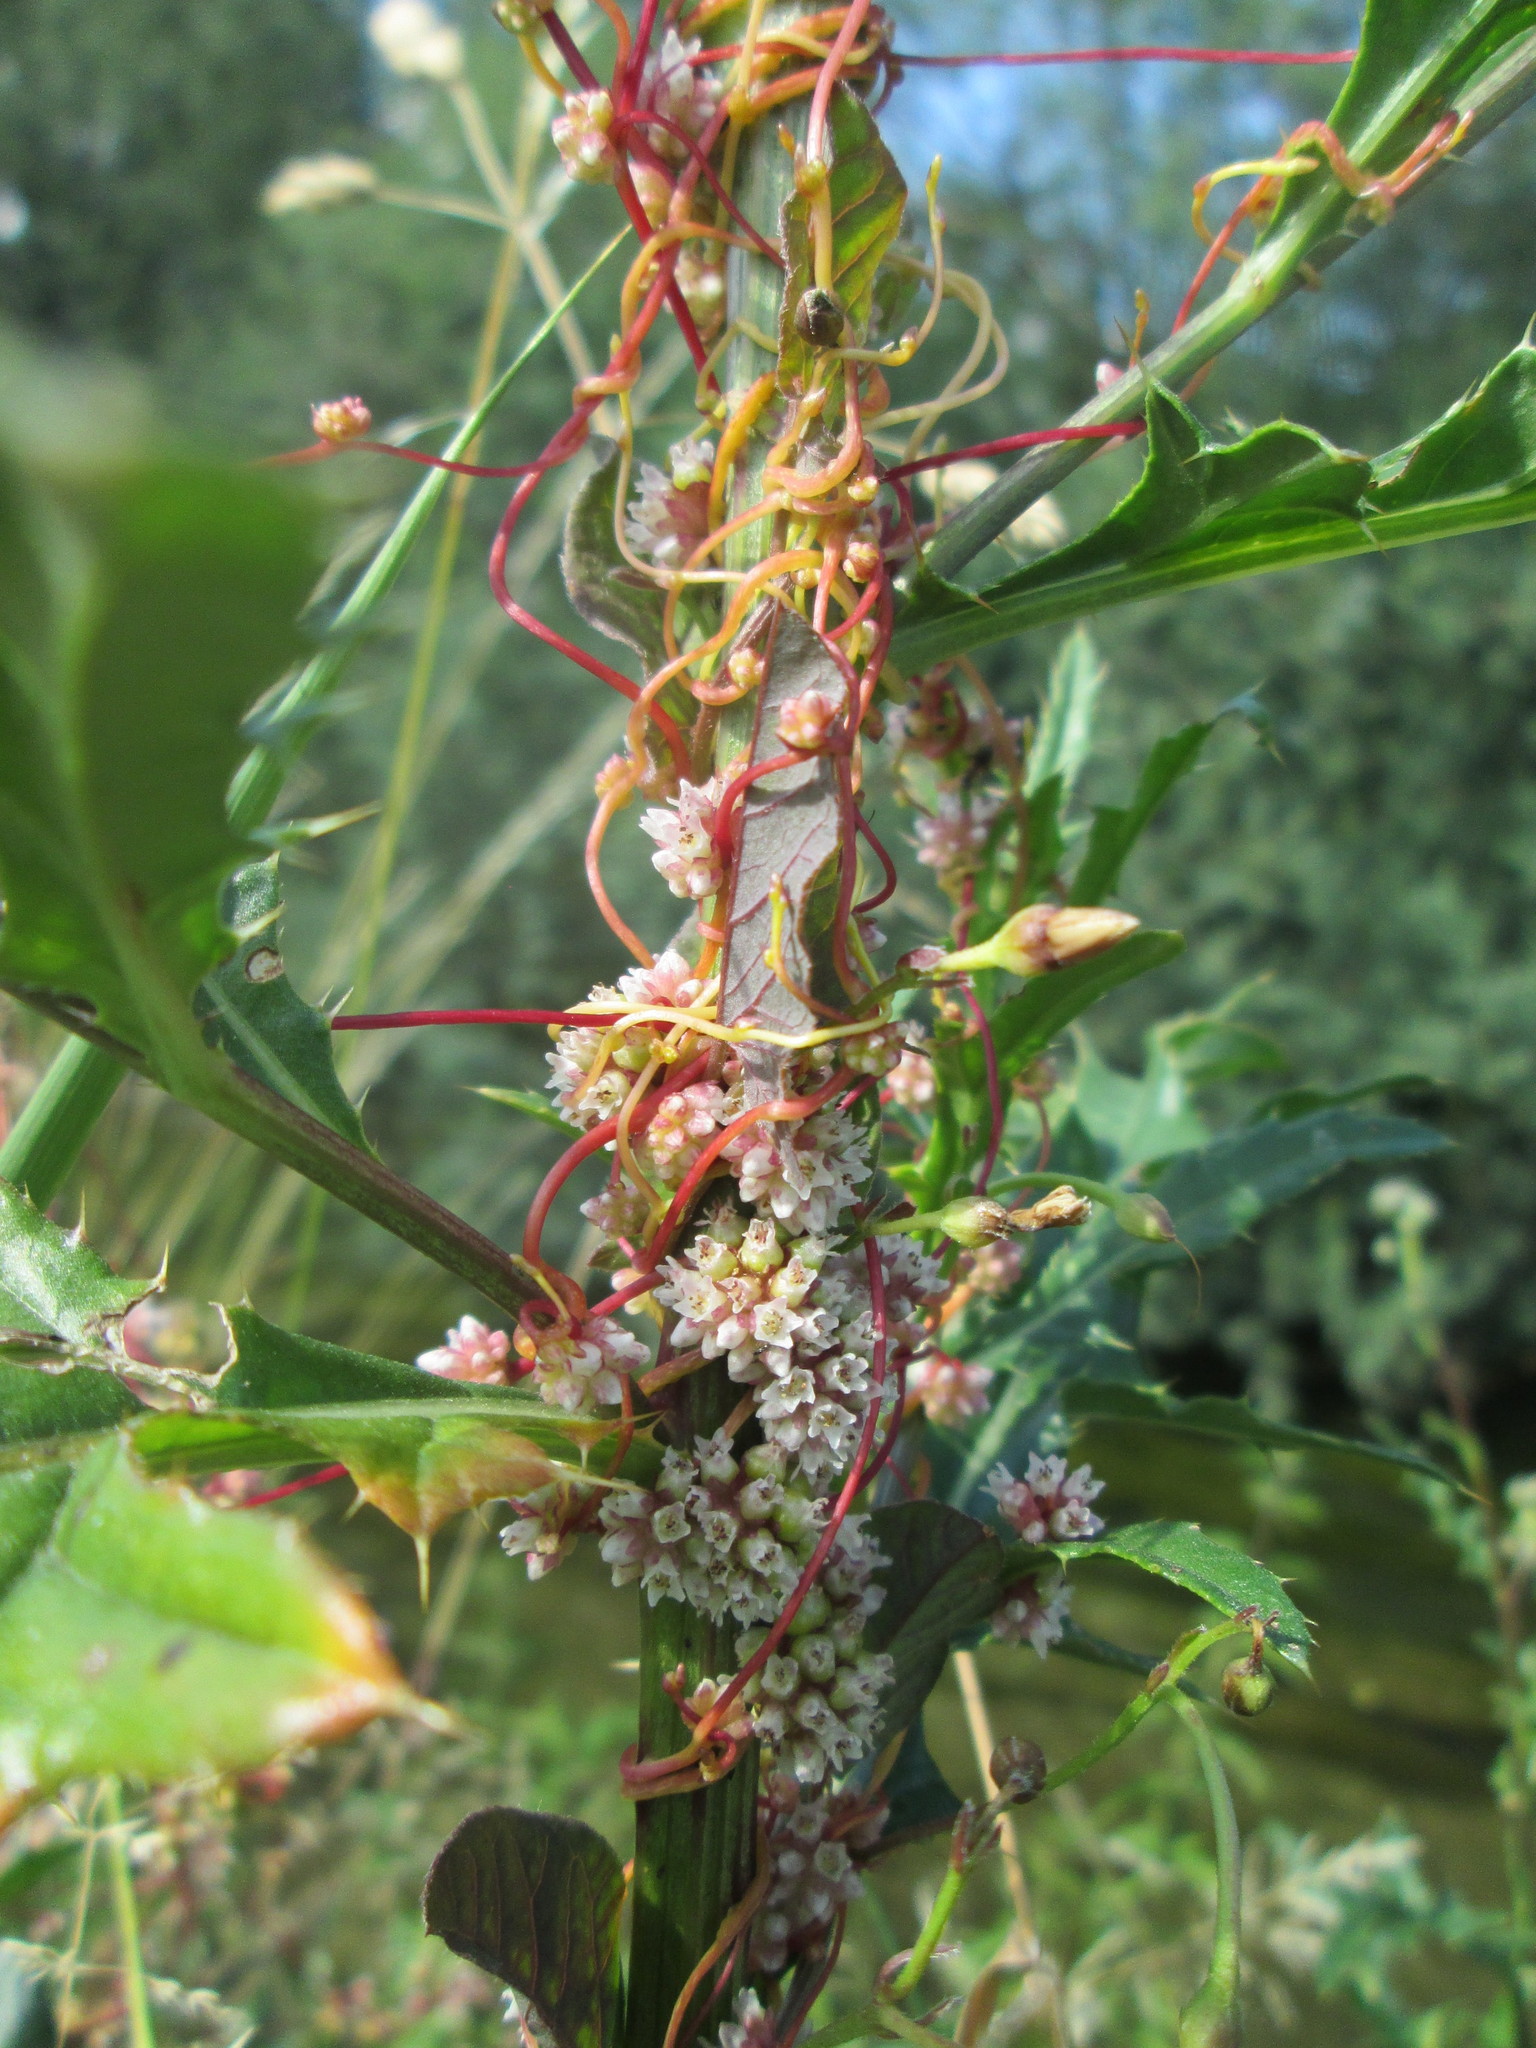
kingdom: Plantae
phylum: Tracheophyta
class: Magnoliopsida
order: Solanales
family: Convolvulaceae
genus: Cuscuta
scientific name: Cuscuta europaea
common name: Greater dodder
